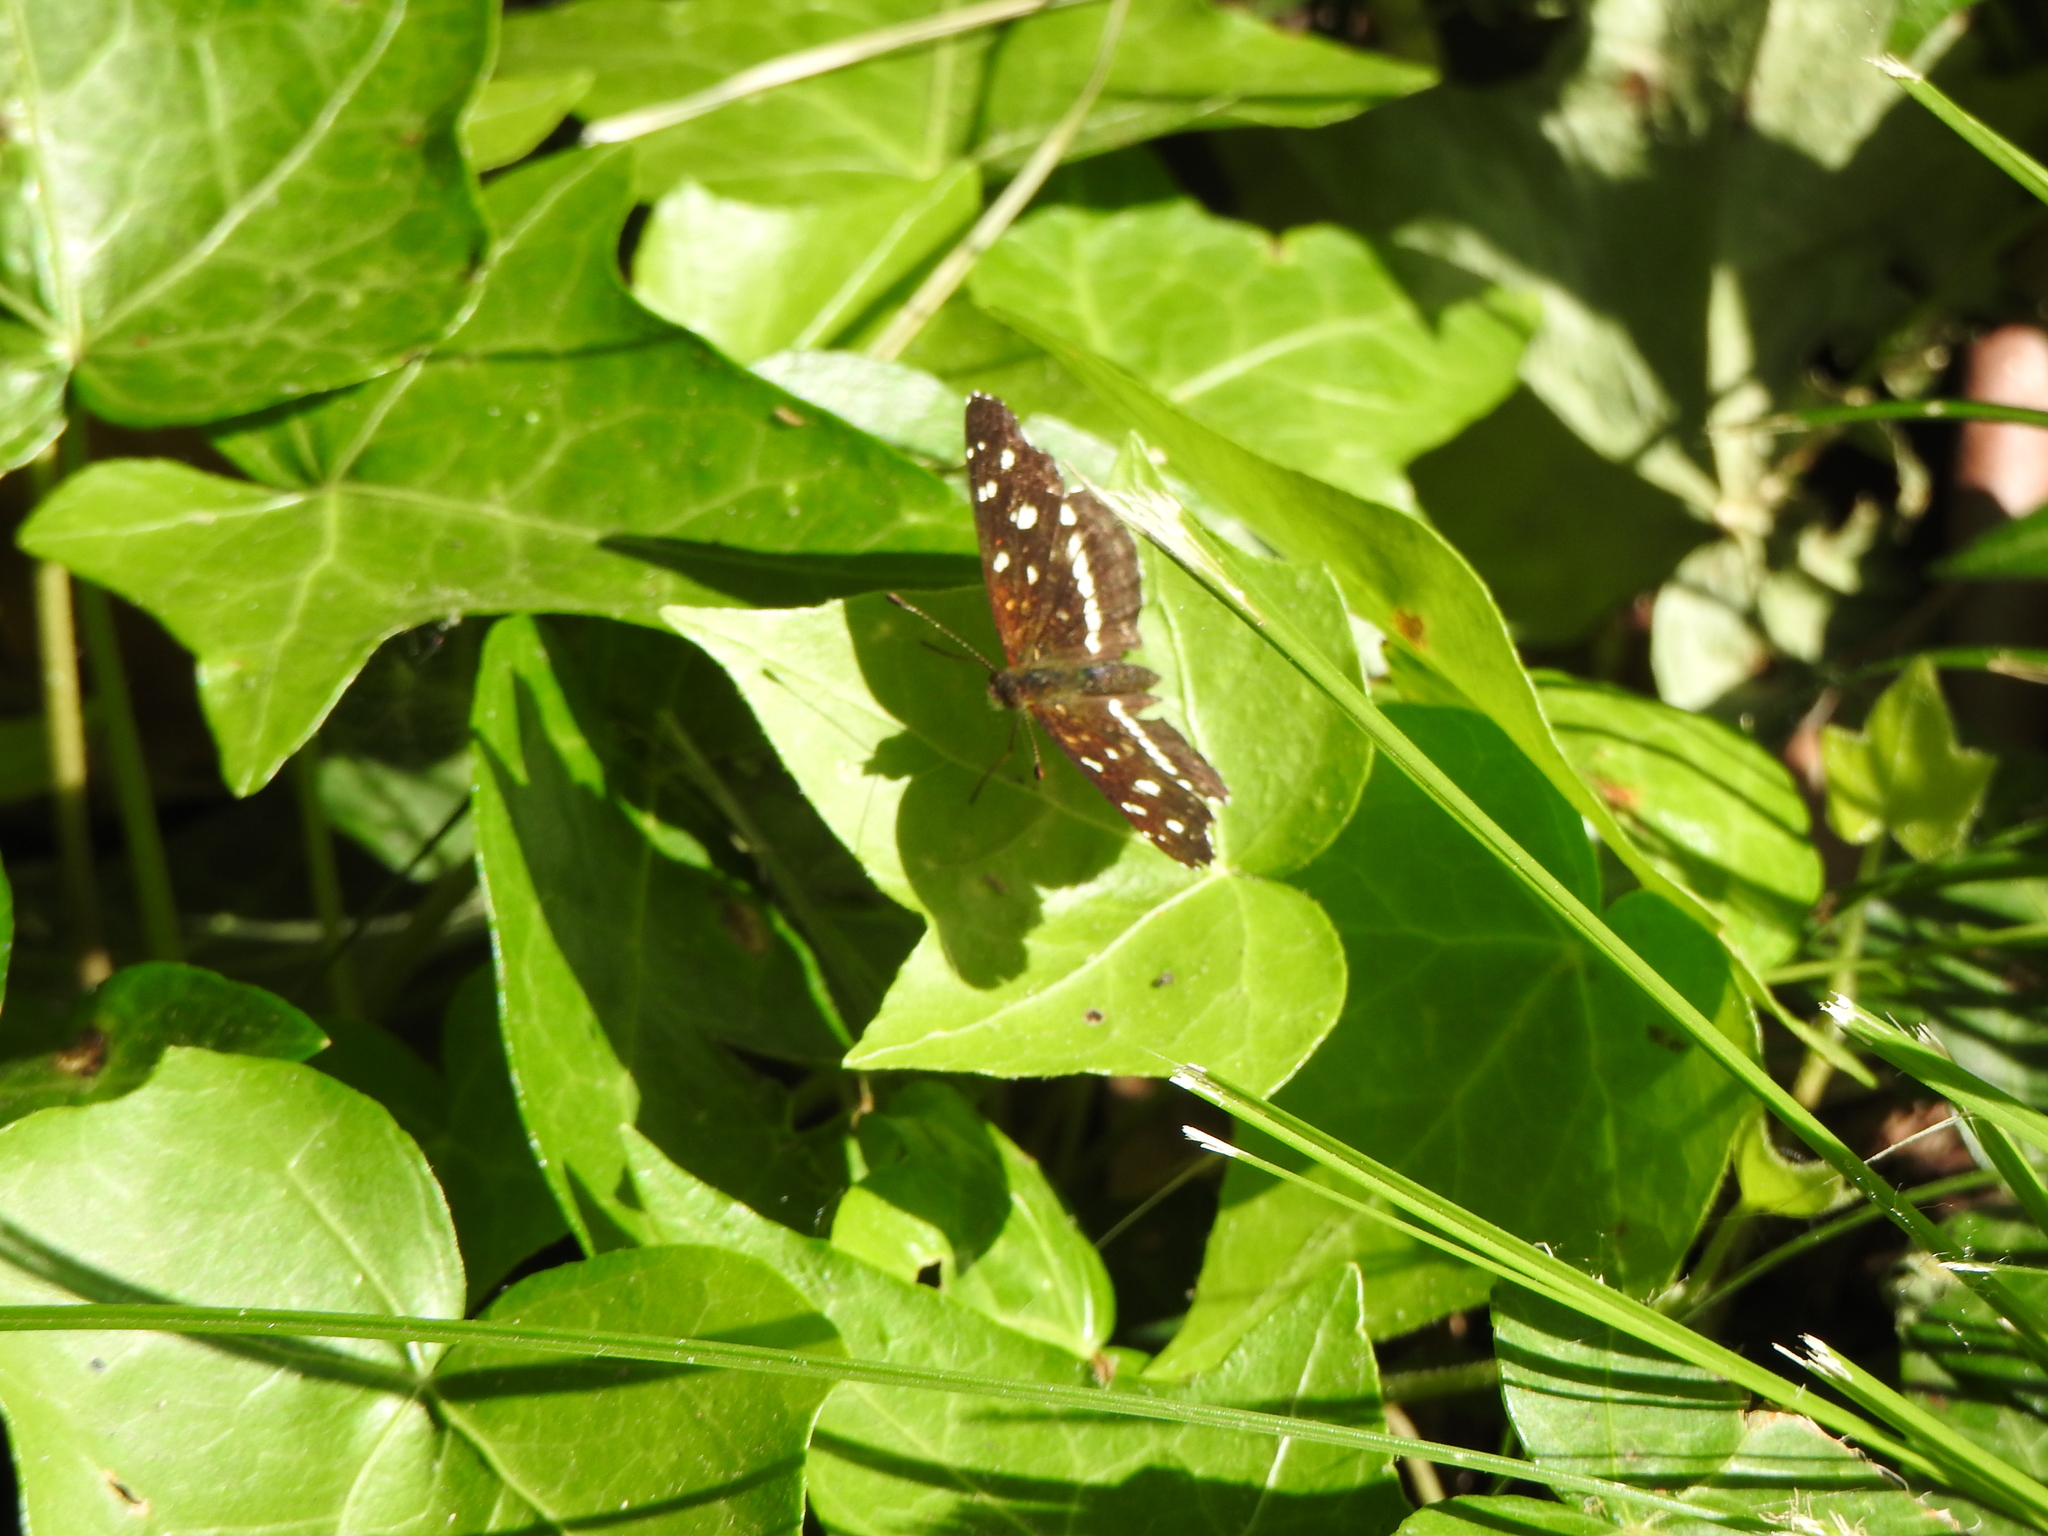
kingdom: Animalia
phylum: Arthropoda
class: Insecta
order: Lepidoptera
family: Nymphalidae
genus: Ortilia
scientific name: Ortilia ithra
